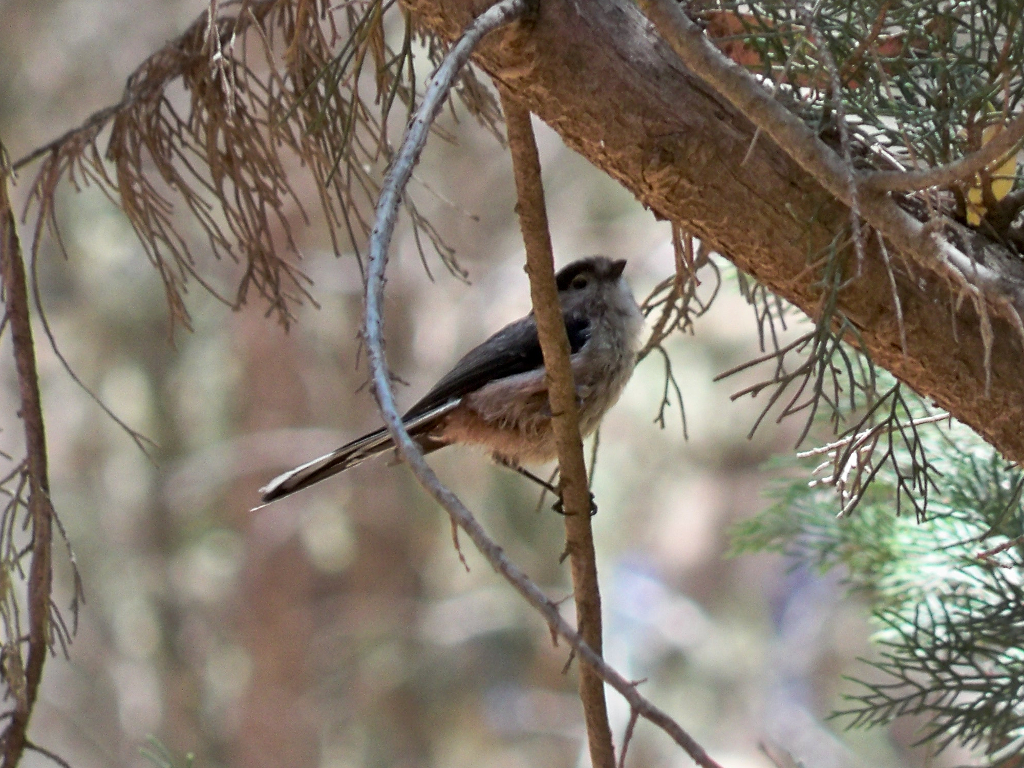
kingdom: Animalia
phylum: Chordata
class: Aves
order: Passeriformes
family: Aegithalidae
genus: Aegithalos
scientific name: Aegithalos caudatus
